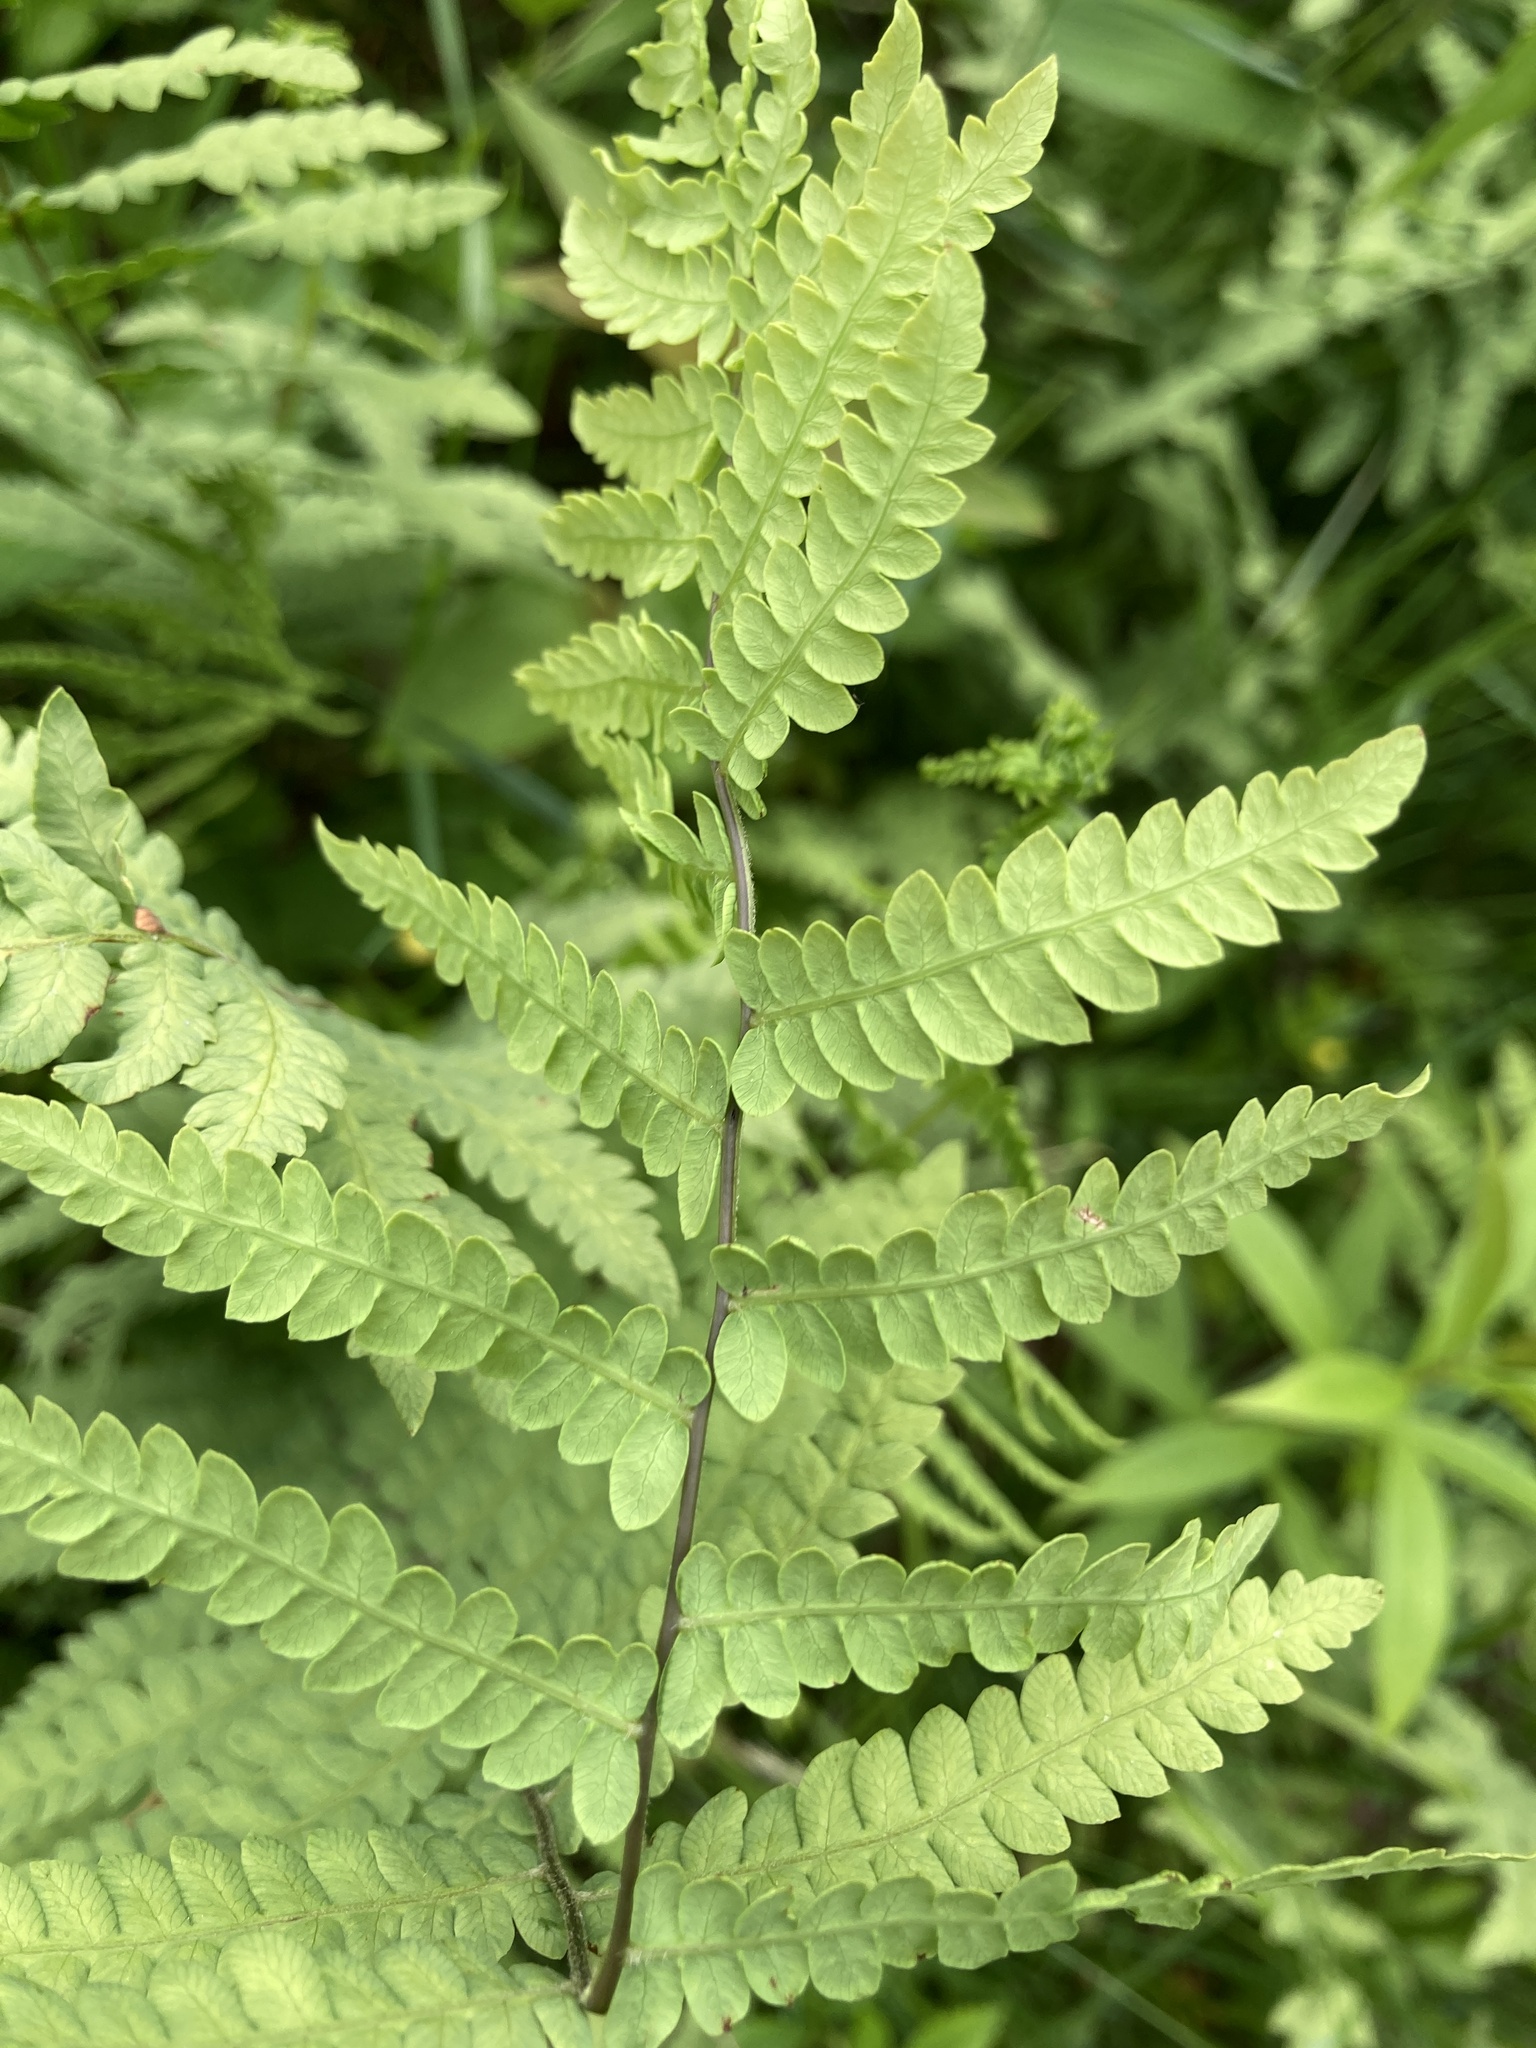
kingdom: Plantae
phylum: Tracheophyta
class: Polypodiopsida
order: Polypodiales
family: Thelypteridaceae
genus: Thelypteris
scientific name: Thelypteris palustris
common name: Marsh fern
